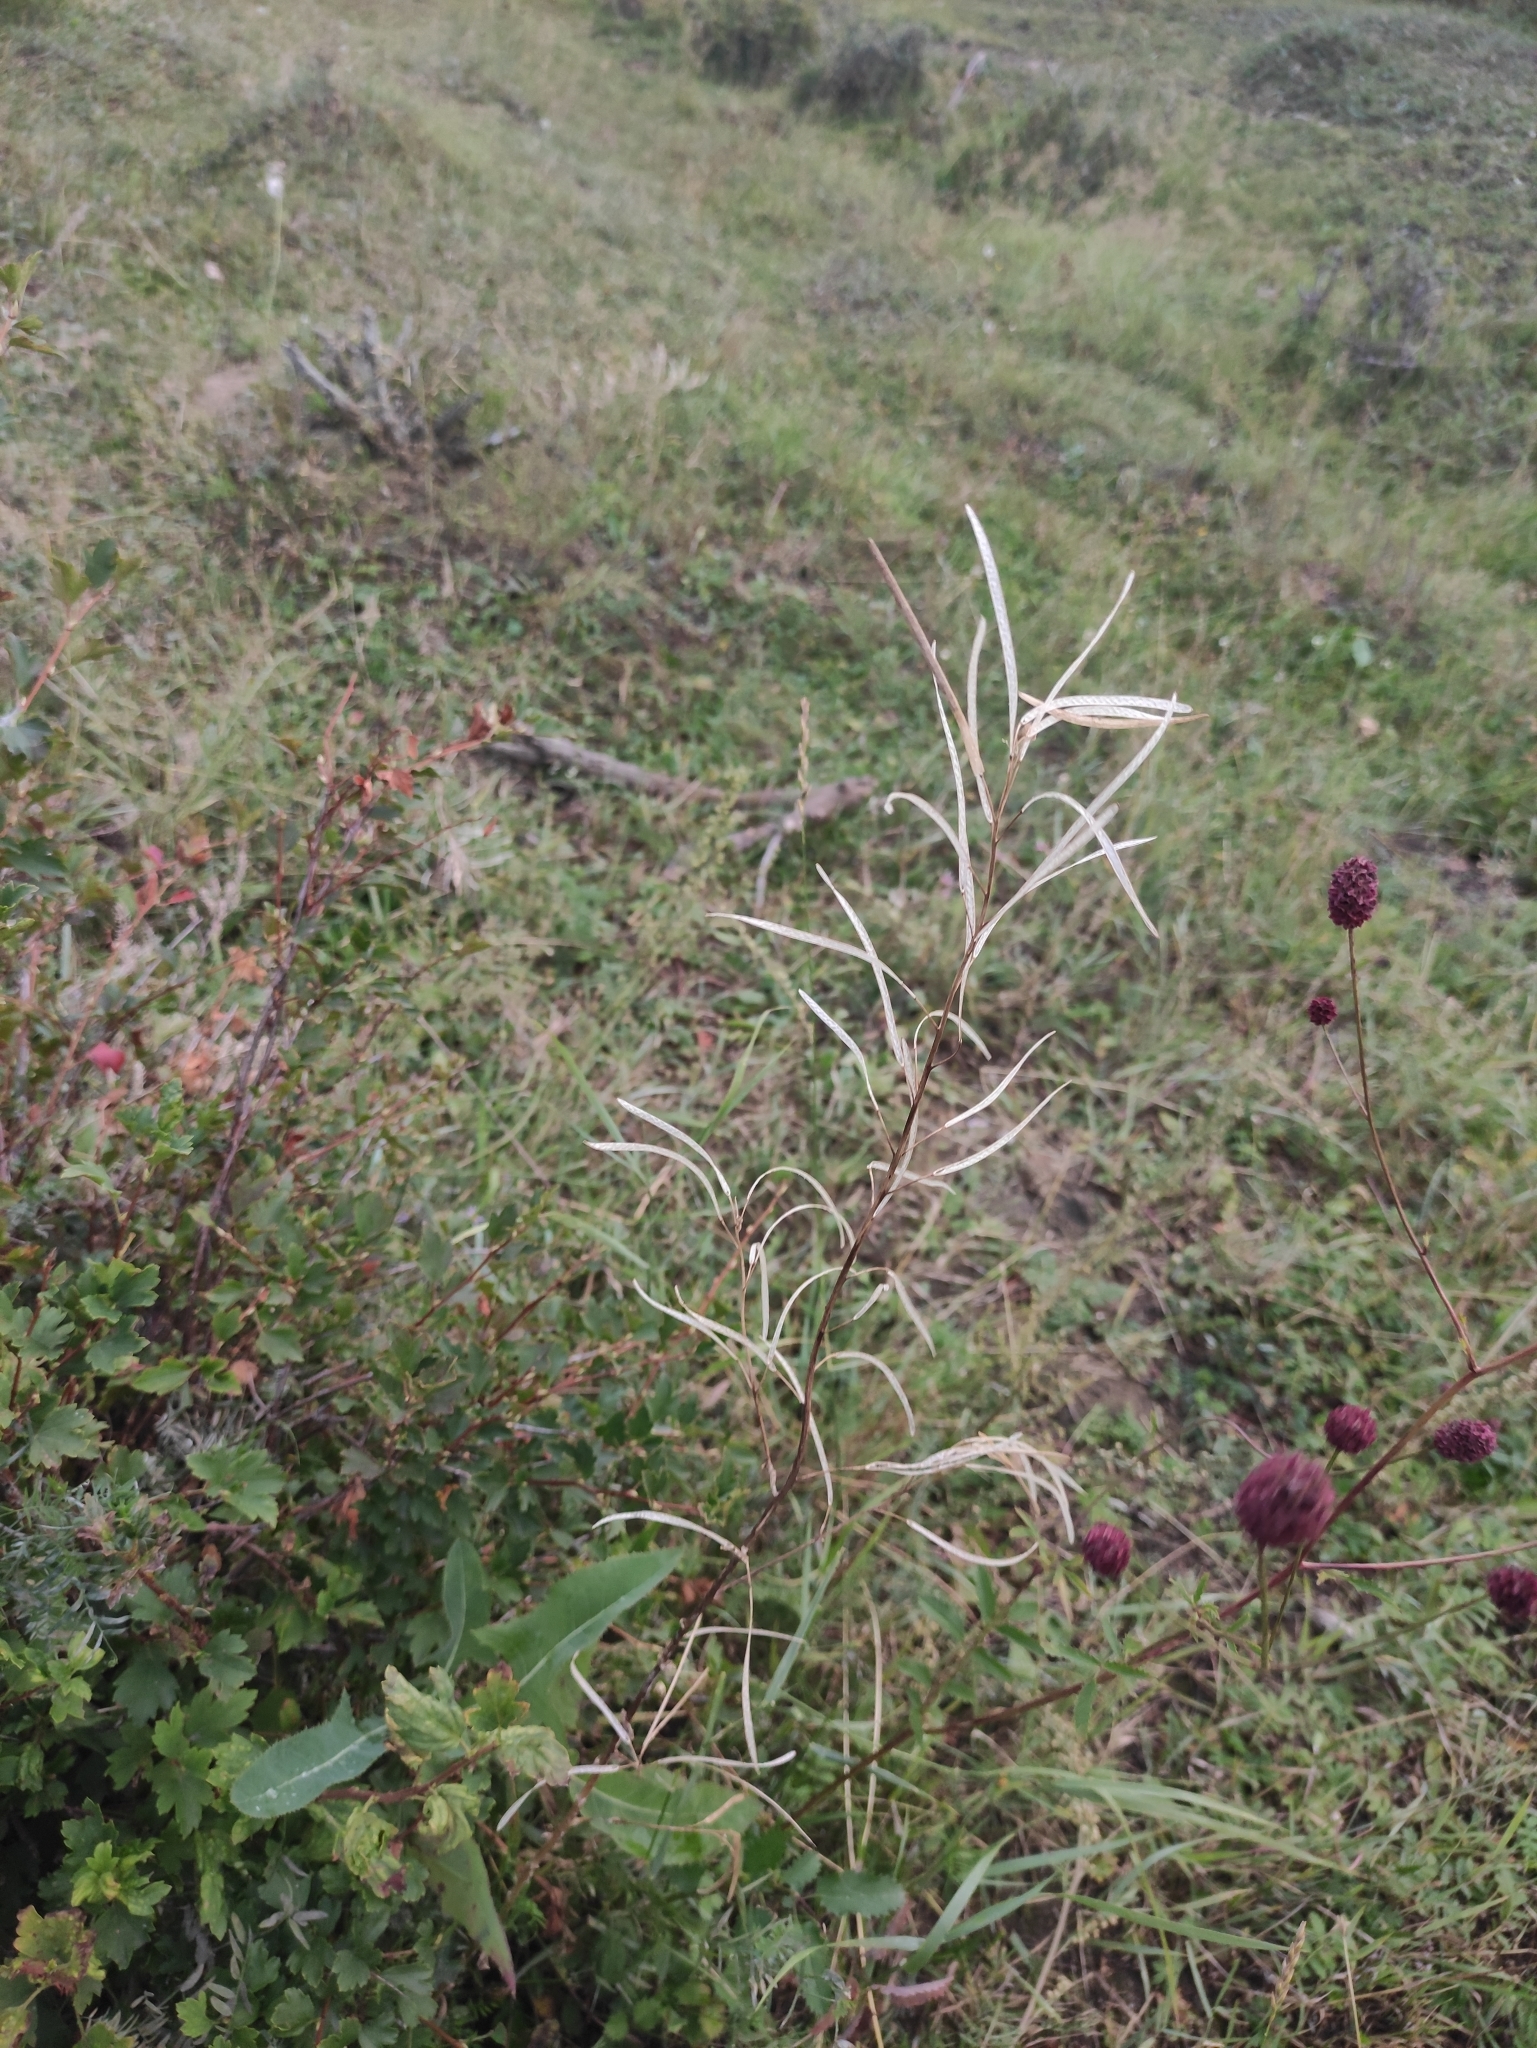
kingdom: Plantae
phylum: Tracheophyta
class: Magnoliopsida
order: Brassicales
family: Brassicaceae
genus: Catolobus
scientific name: Catolobus pendulus
